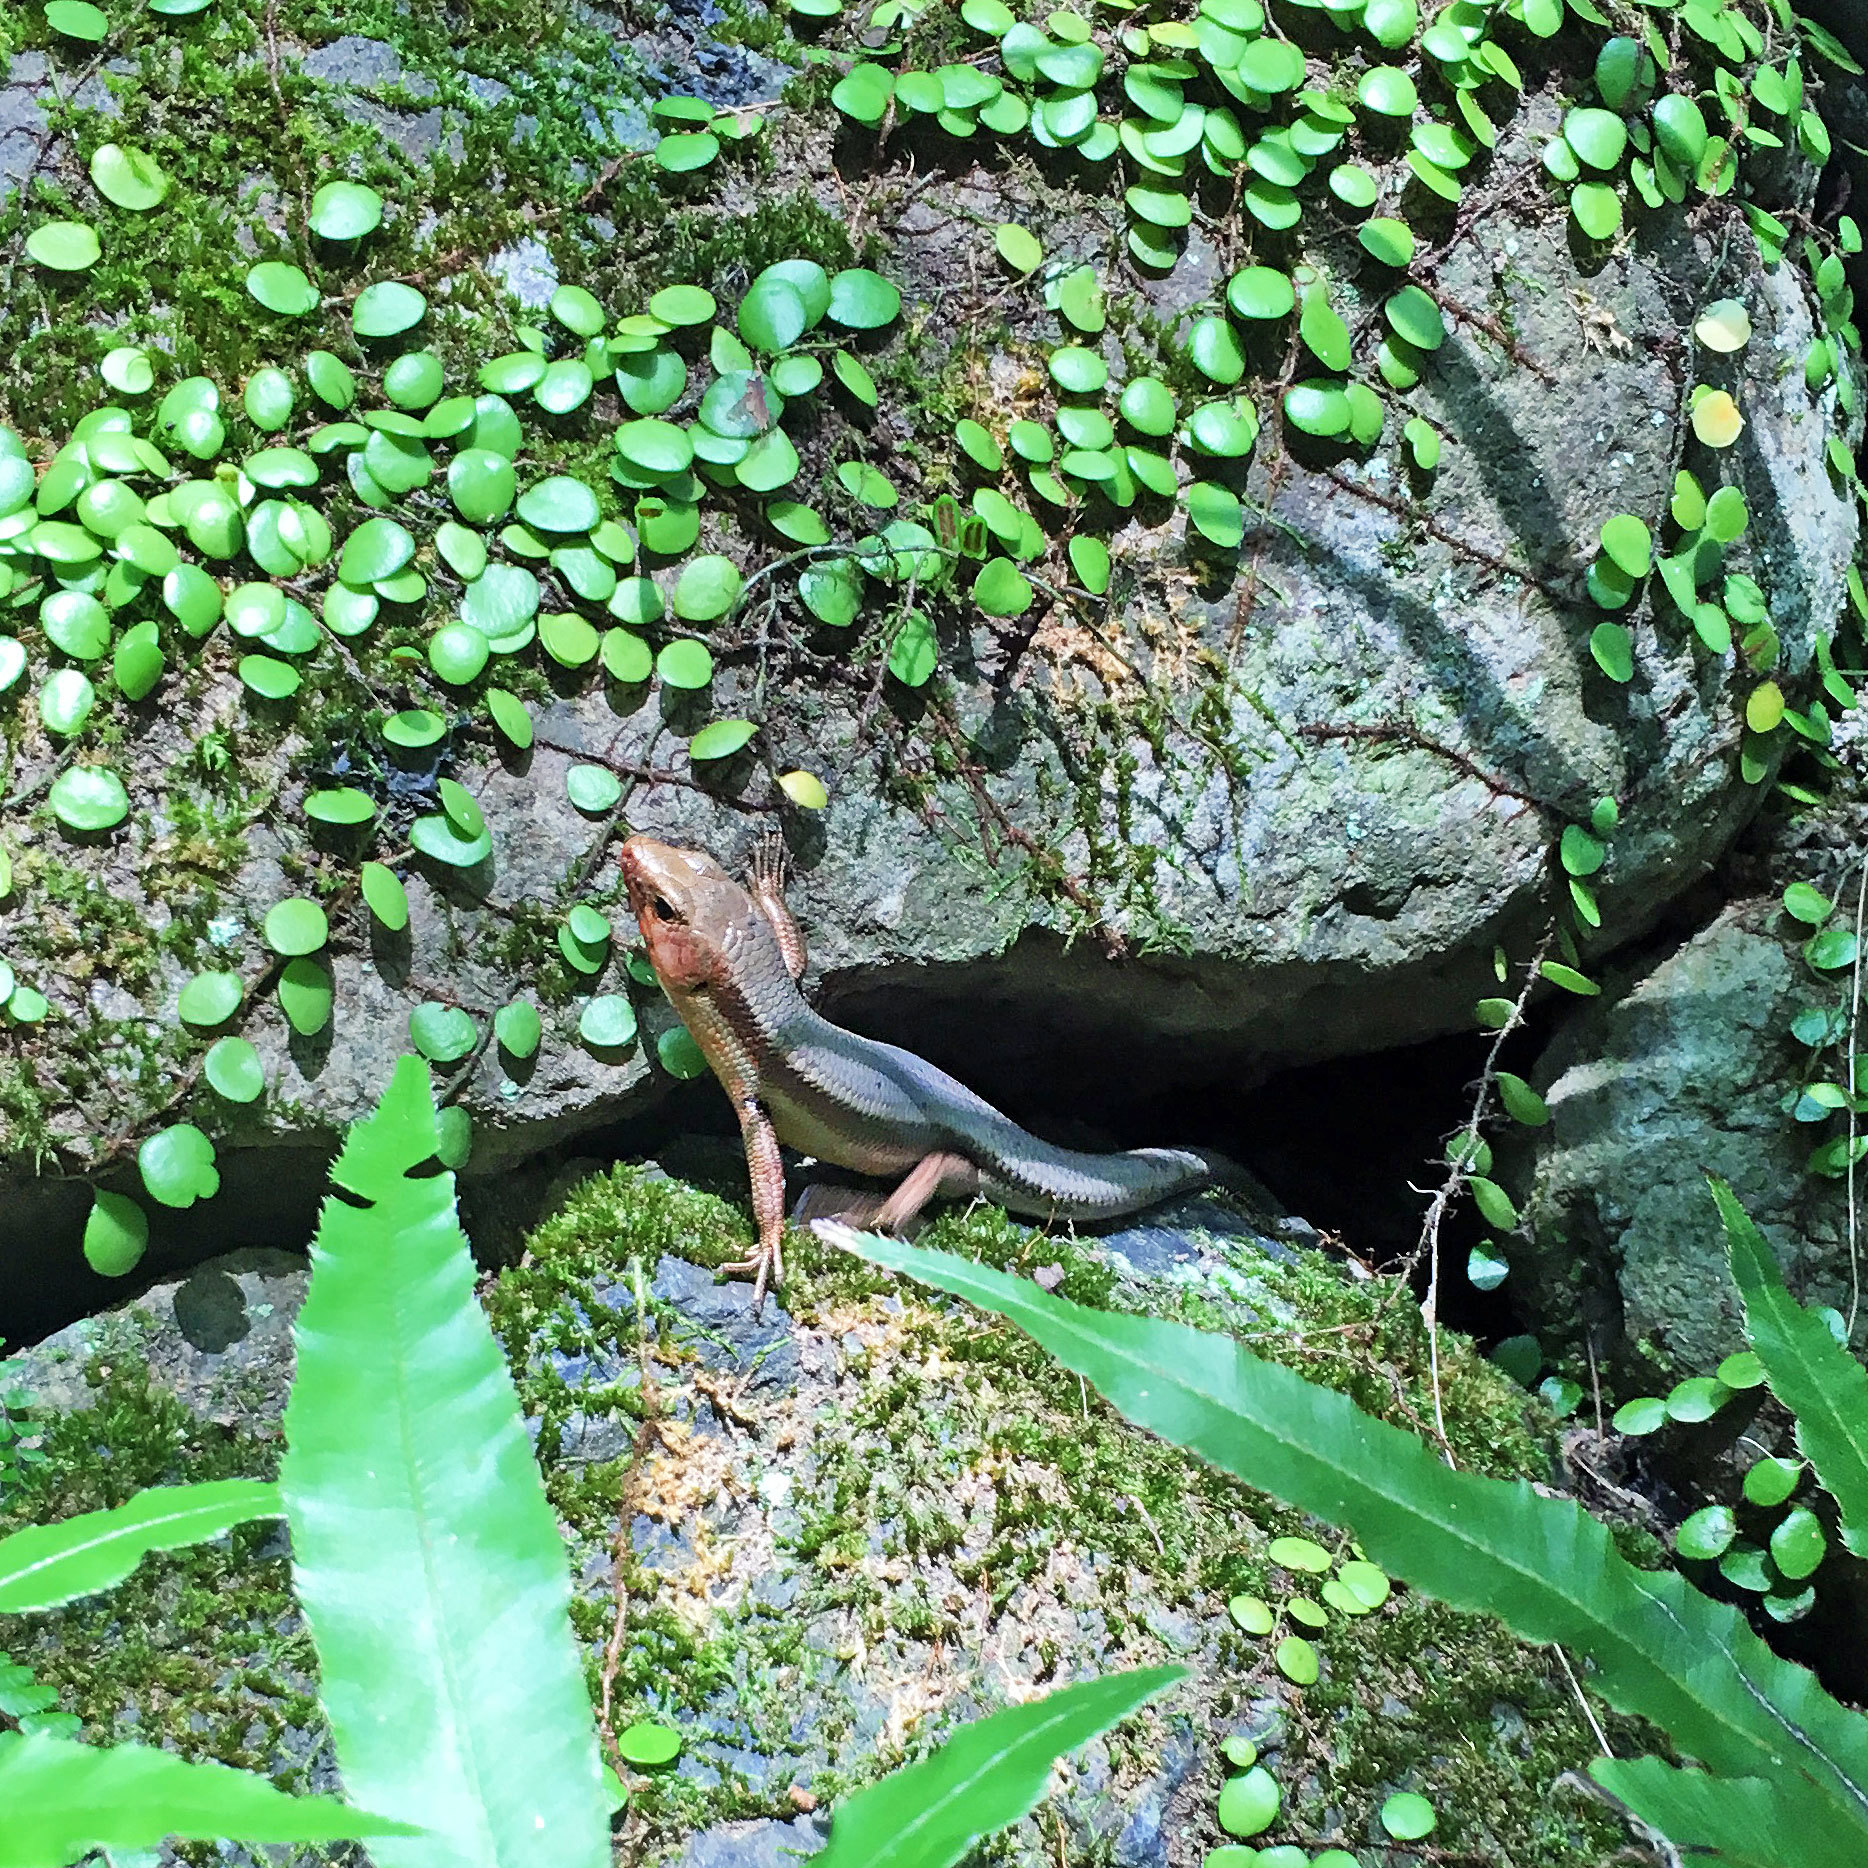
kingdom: Animalia
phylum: Chordata
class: Squamata
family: Scincidae
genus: Plestiodon
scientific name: Plestiodon japonicus
